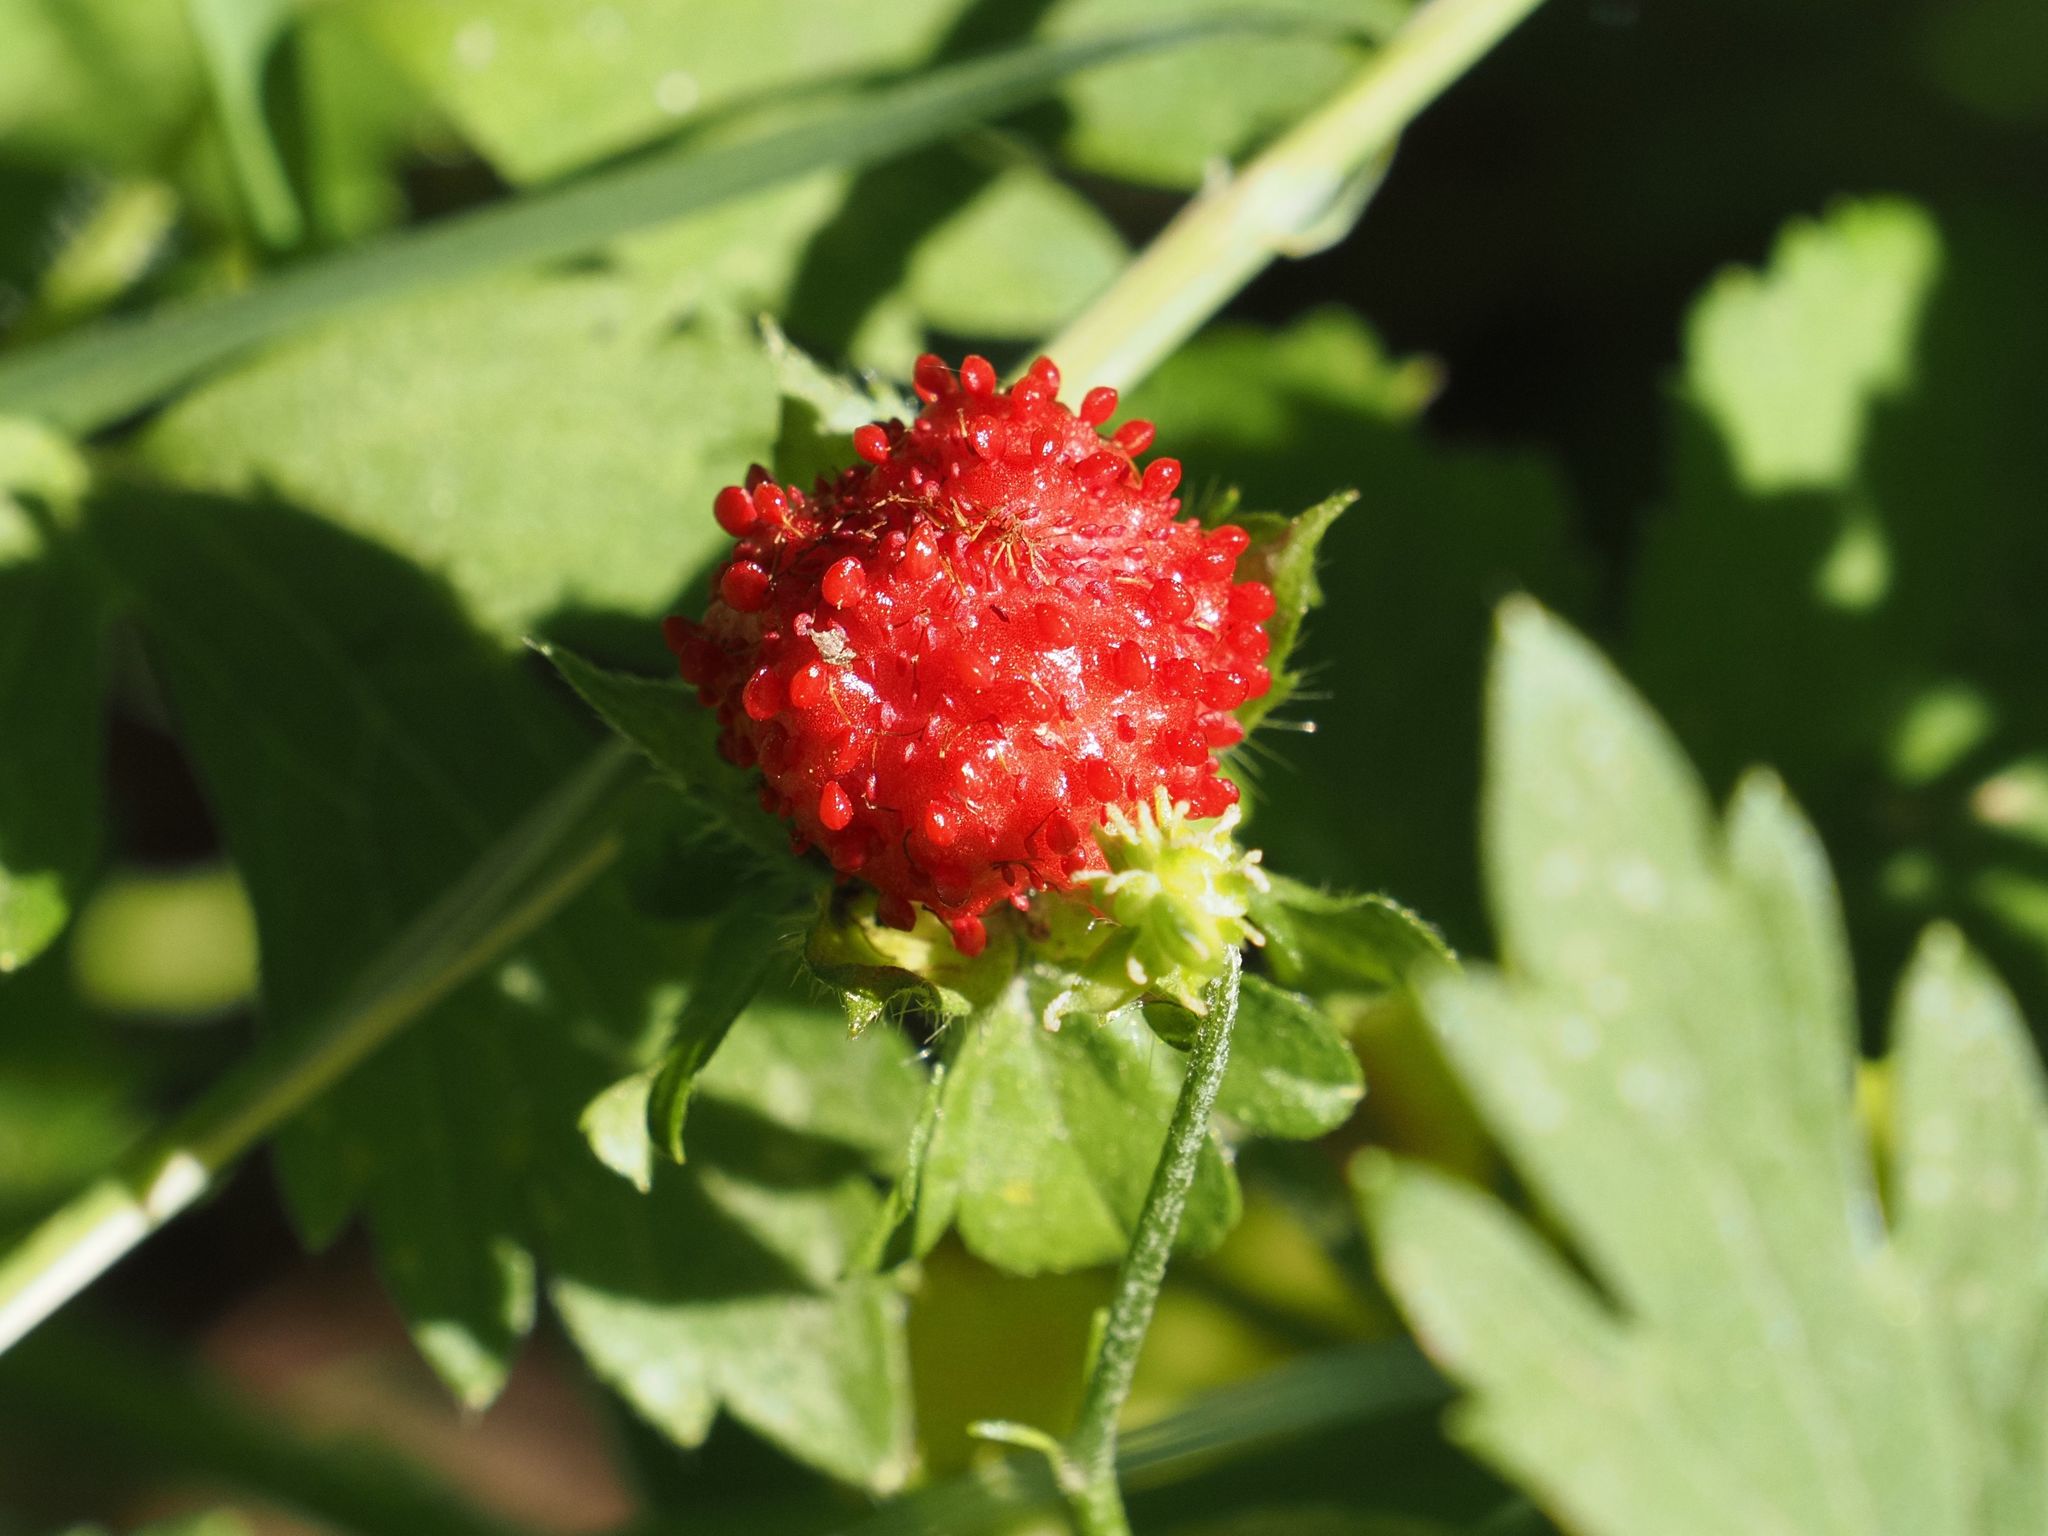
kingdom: Plantae
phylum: Tracheophyta
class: Magnoliopsida
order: Rosales
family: Rosaceae
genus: Potentilla
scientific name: Potentilla indica
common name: Yellow-flowered strawberry
